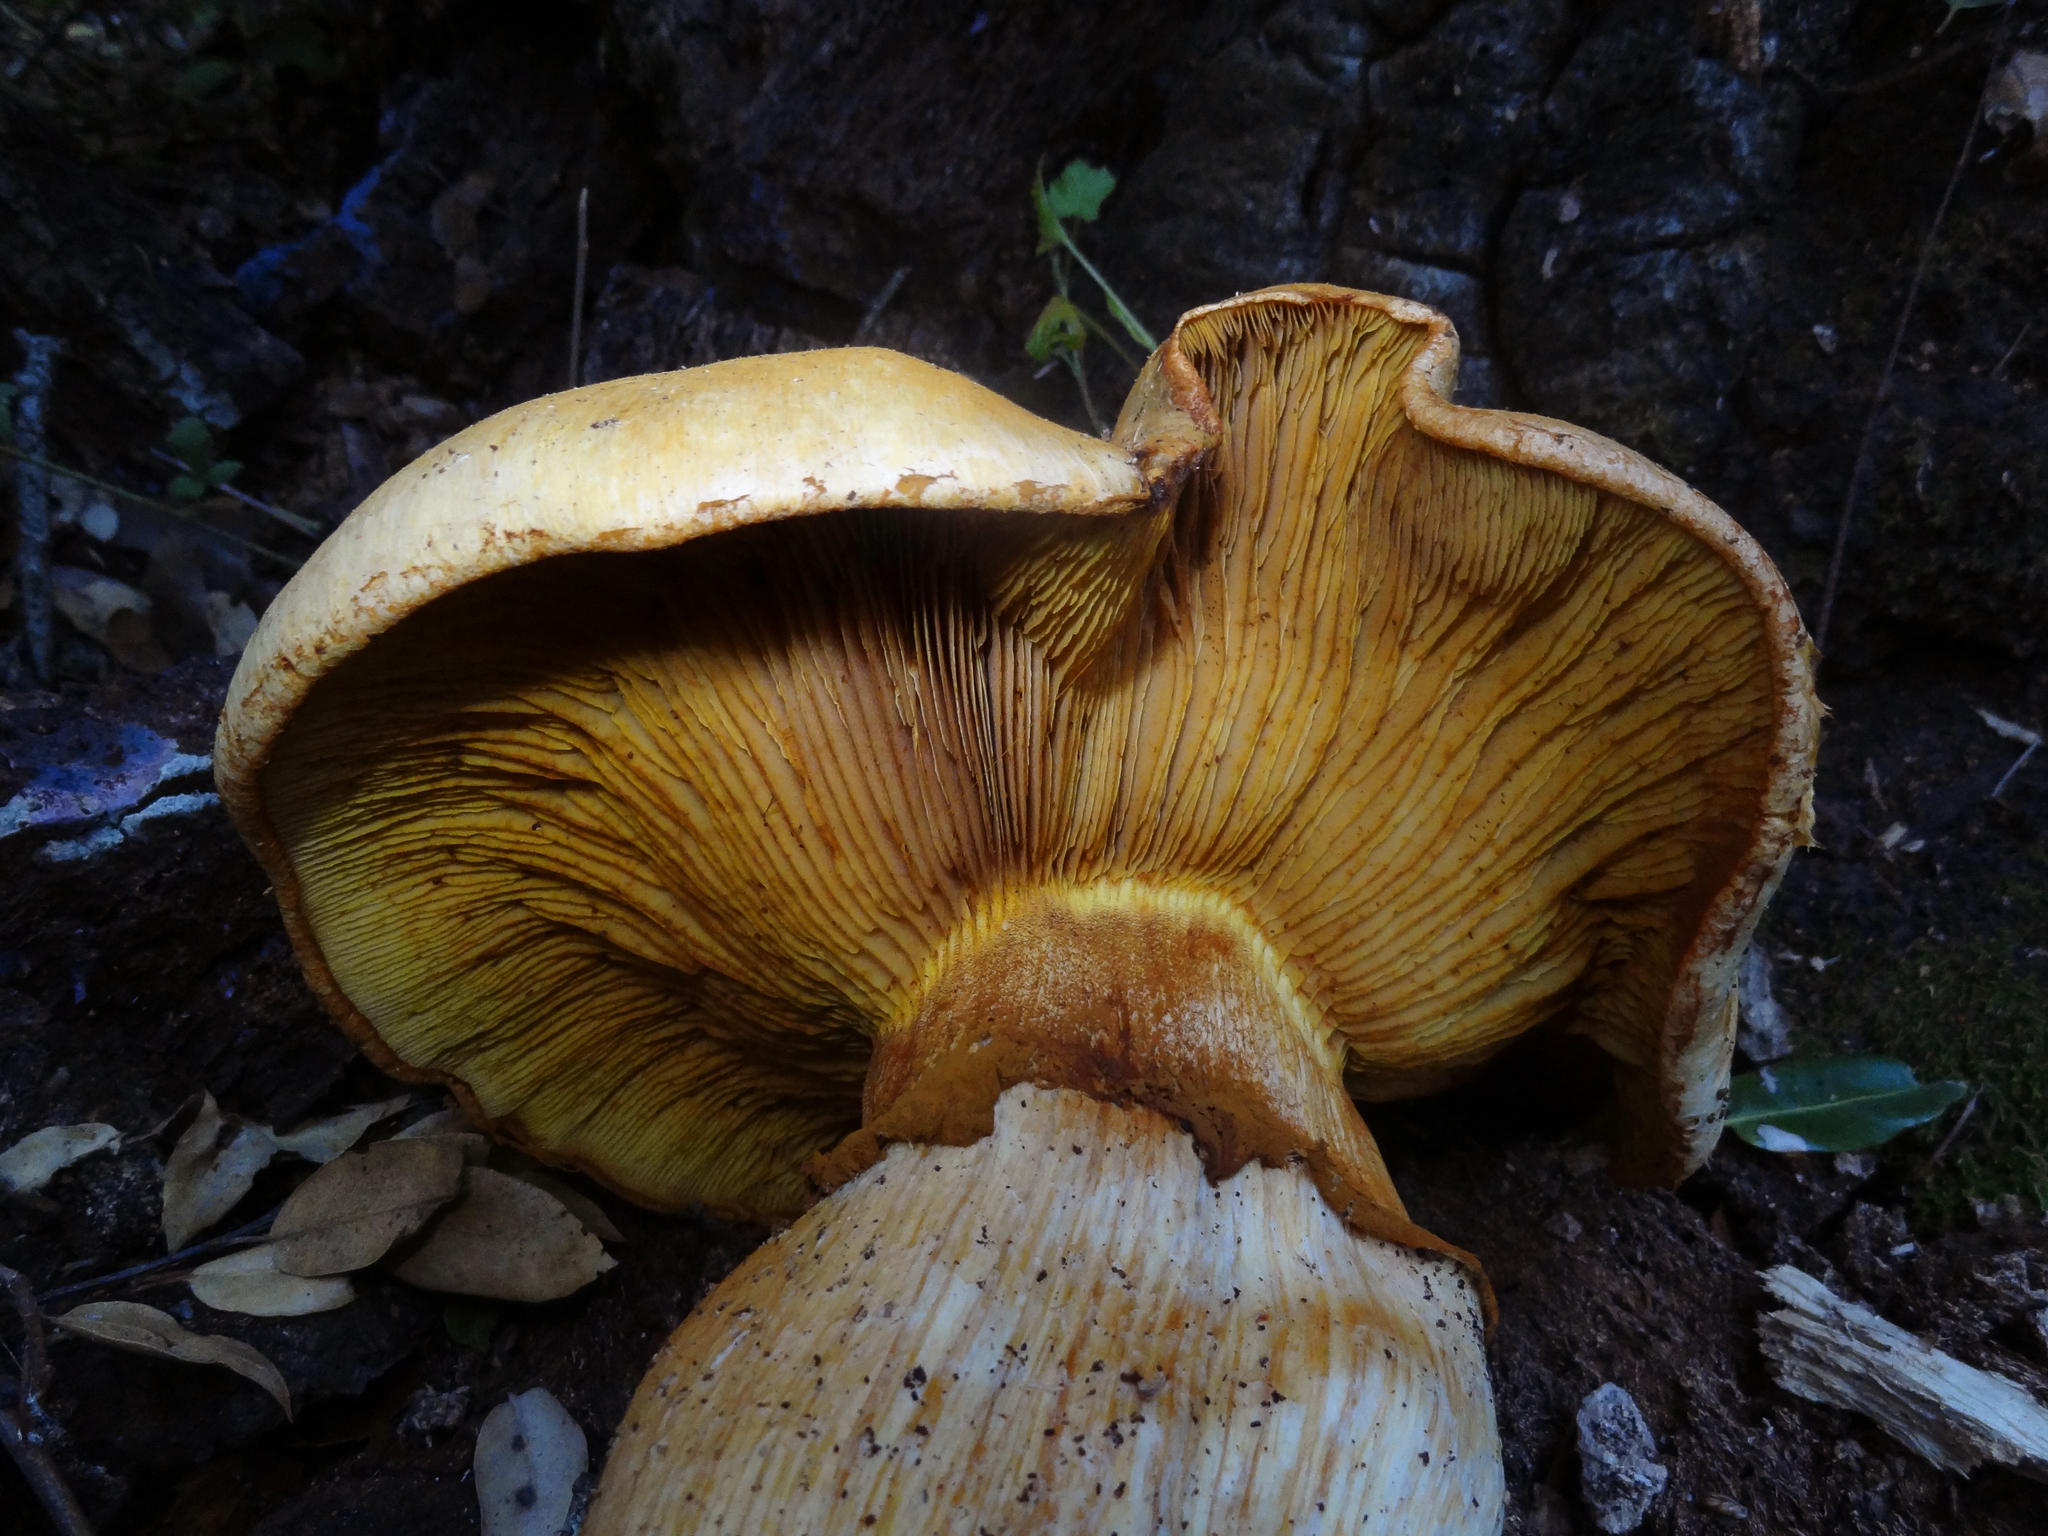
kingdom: Fungi
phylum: Basidiomycota
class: Agaricomycetes
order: Agaricales
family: Hymenogastraceae
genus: Gymnopilus
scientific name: Gymnopilus ventricosus
